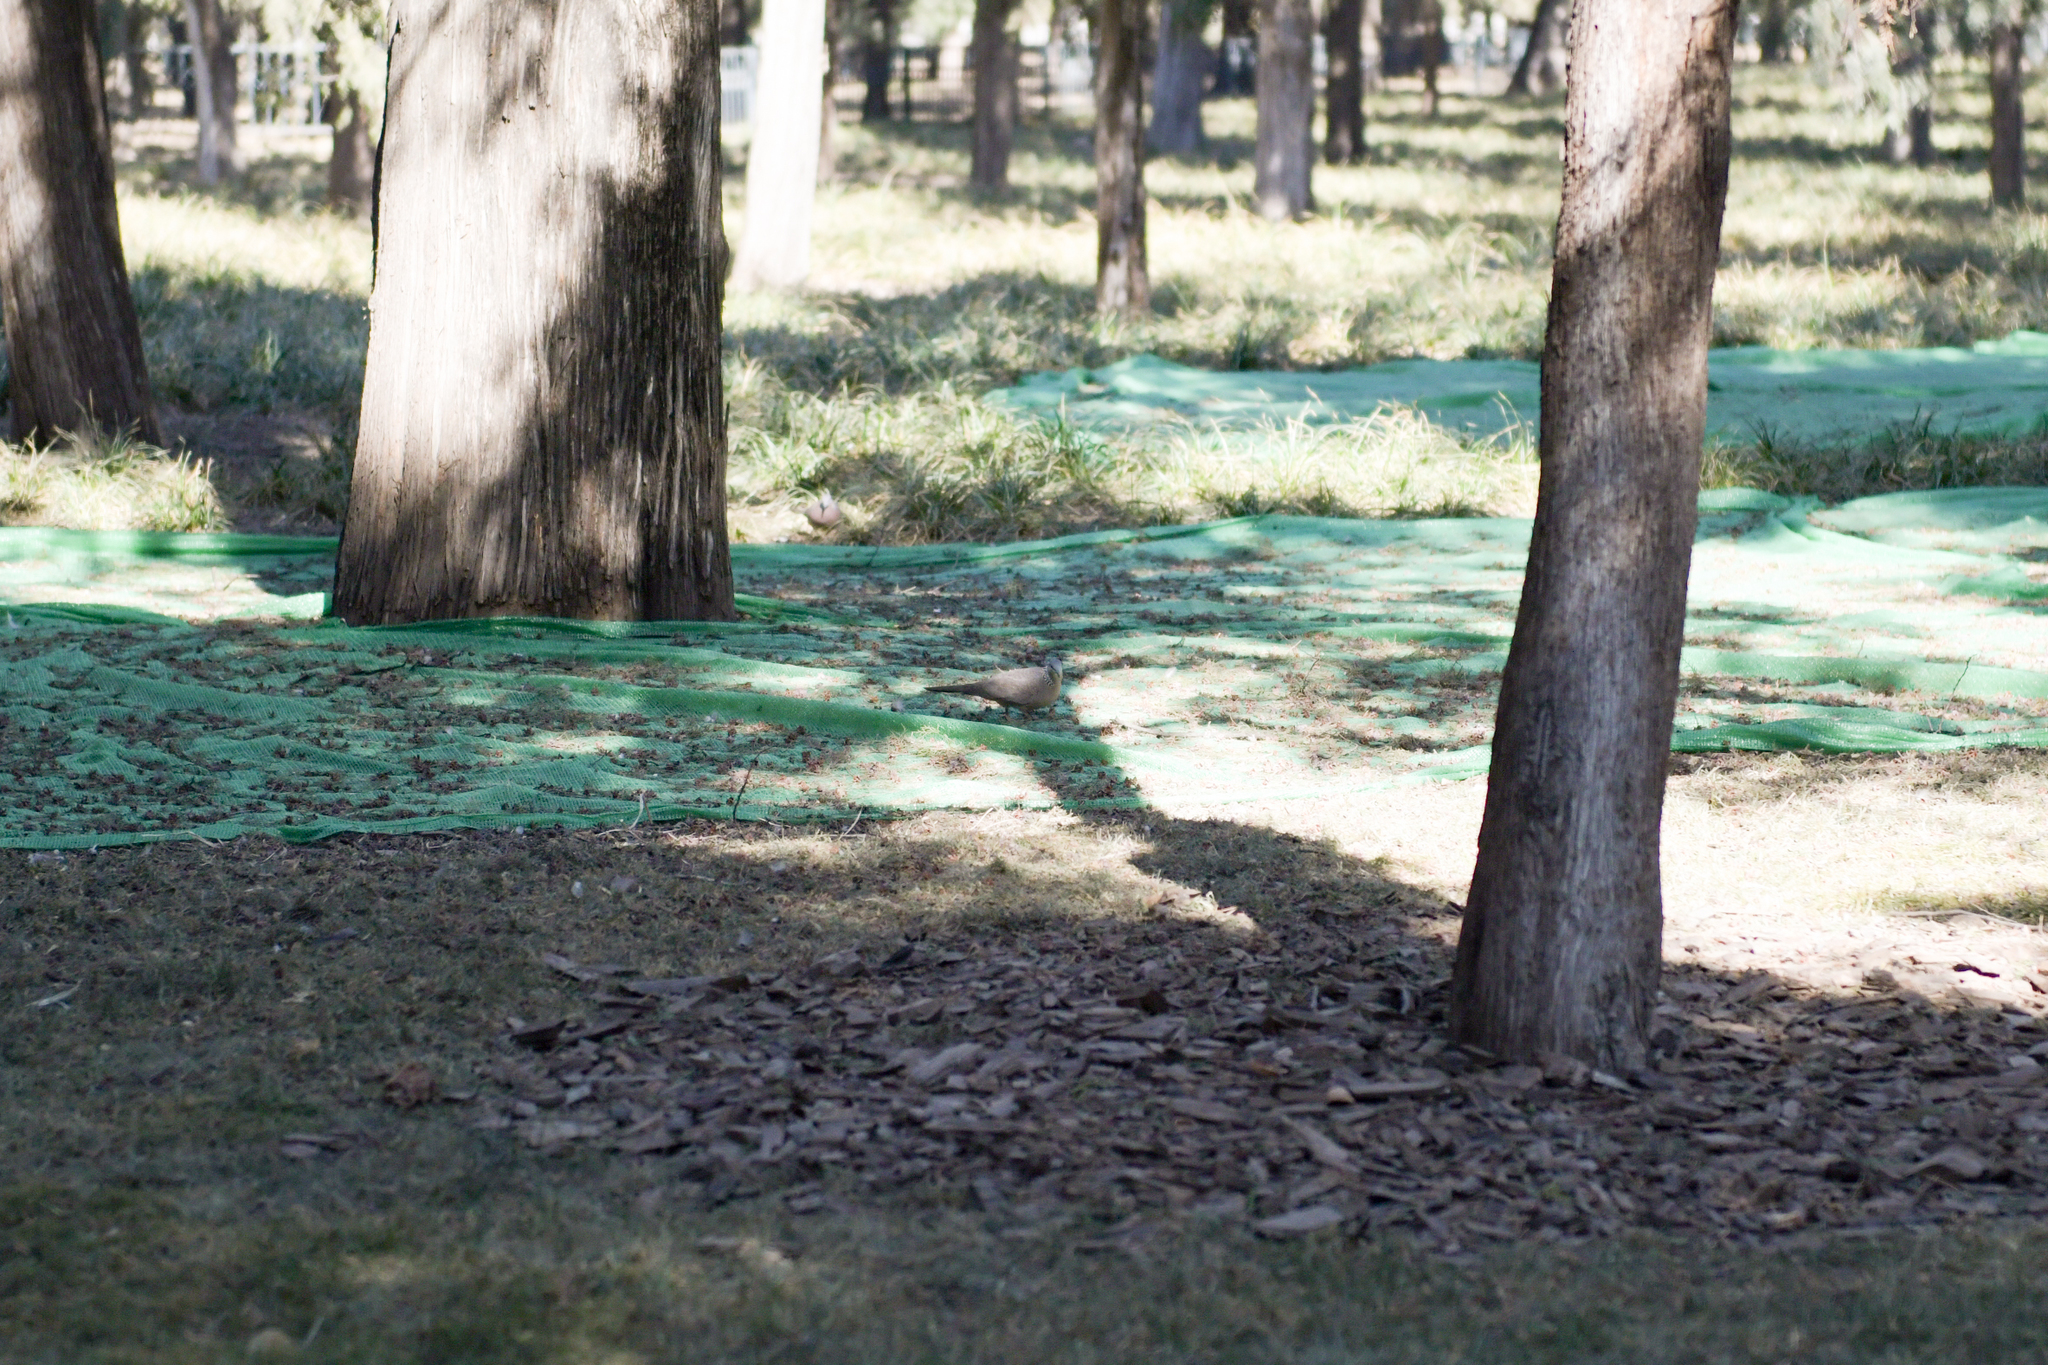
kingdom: Animalia
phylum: Chordata
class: Aves
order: Columbiformes
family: Columbidae
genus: Spilopelia
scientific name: Spilopelia chinensis
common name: Spotted dove
